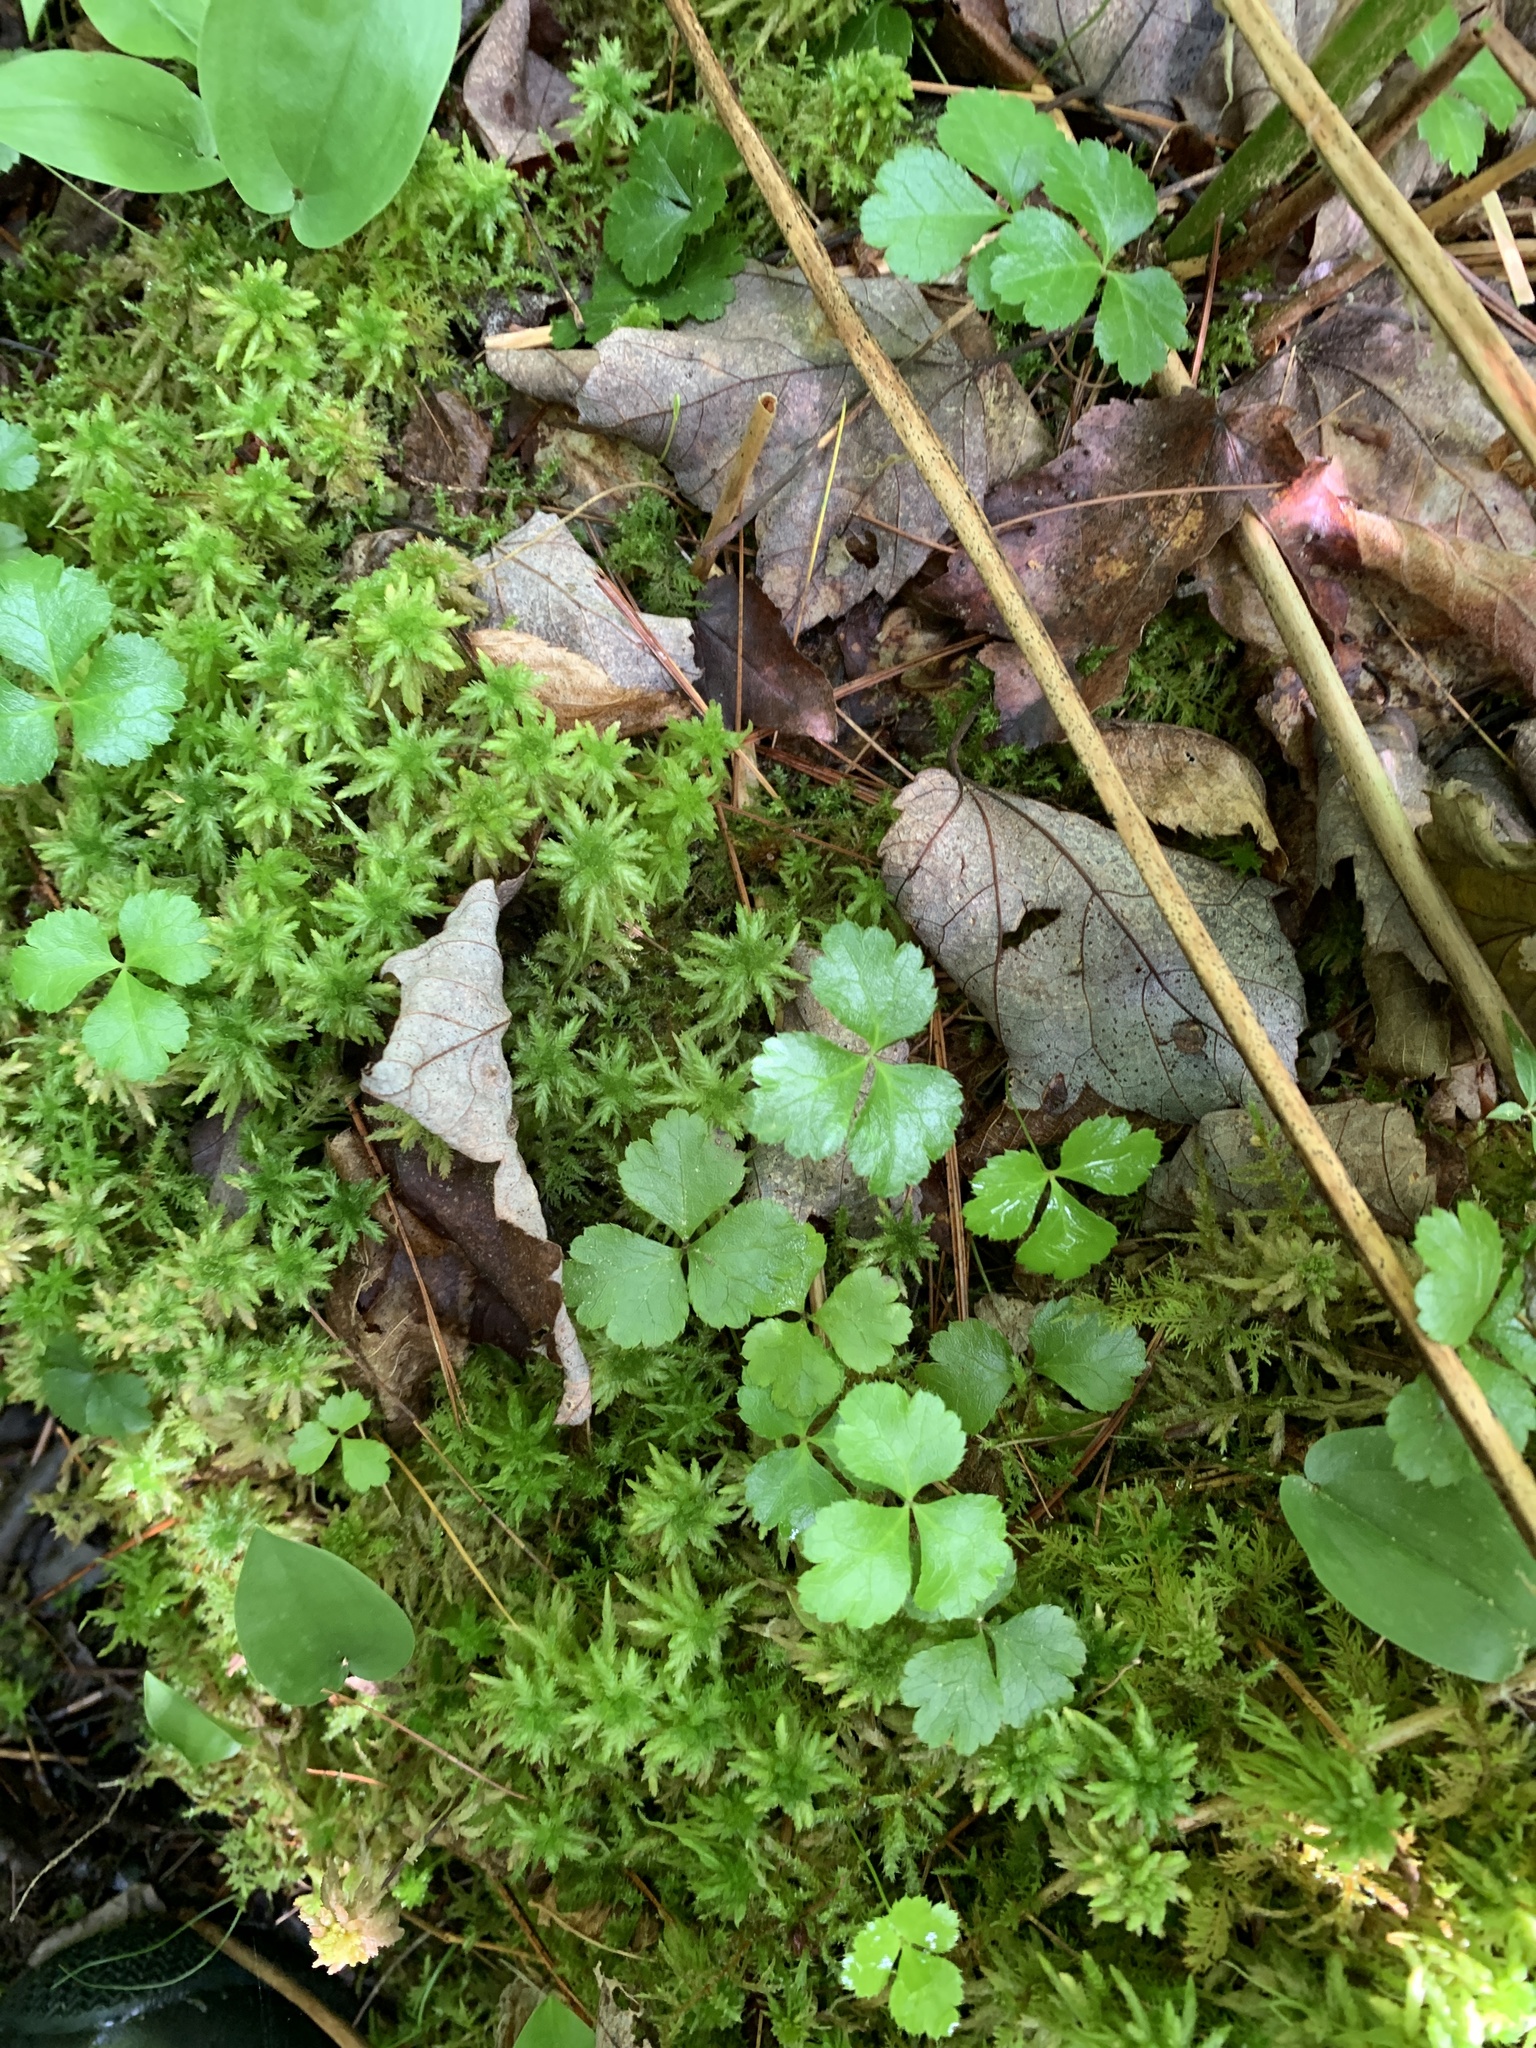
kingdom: Plantae
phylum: Tracheophyta
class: Magnoliopsida
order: Ranunculales
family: Ranunculaceae
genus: Coptis
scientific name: Coptis trifolia
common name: Canker-root
